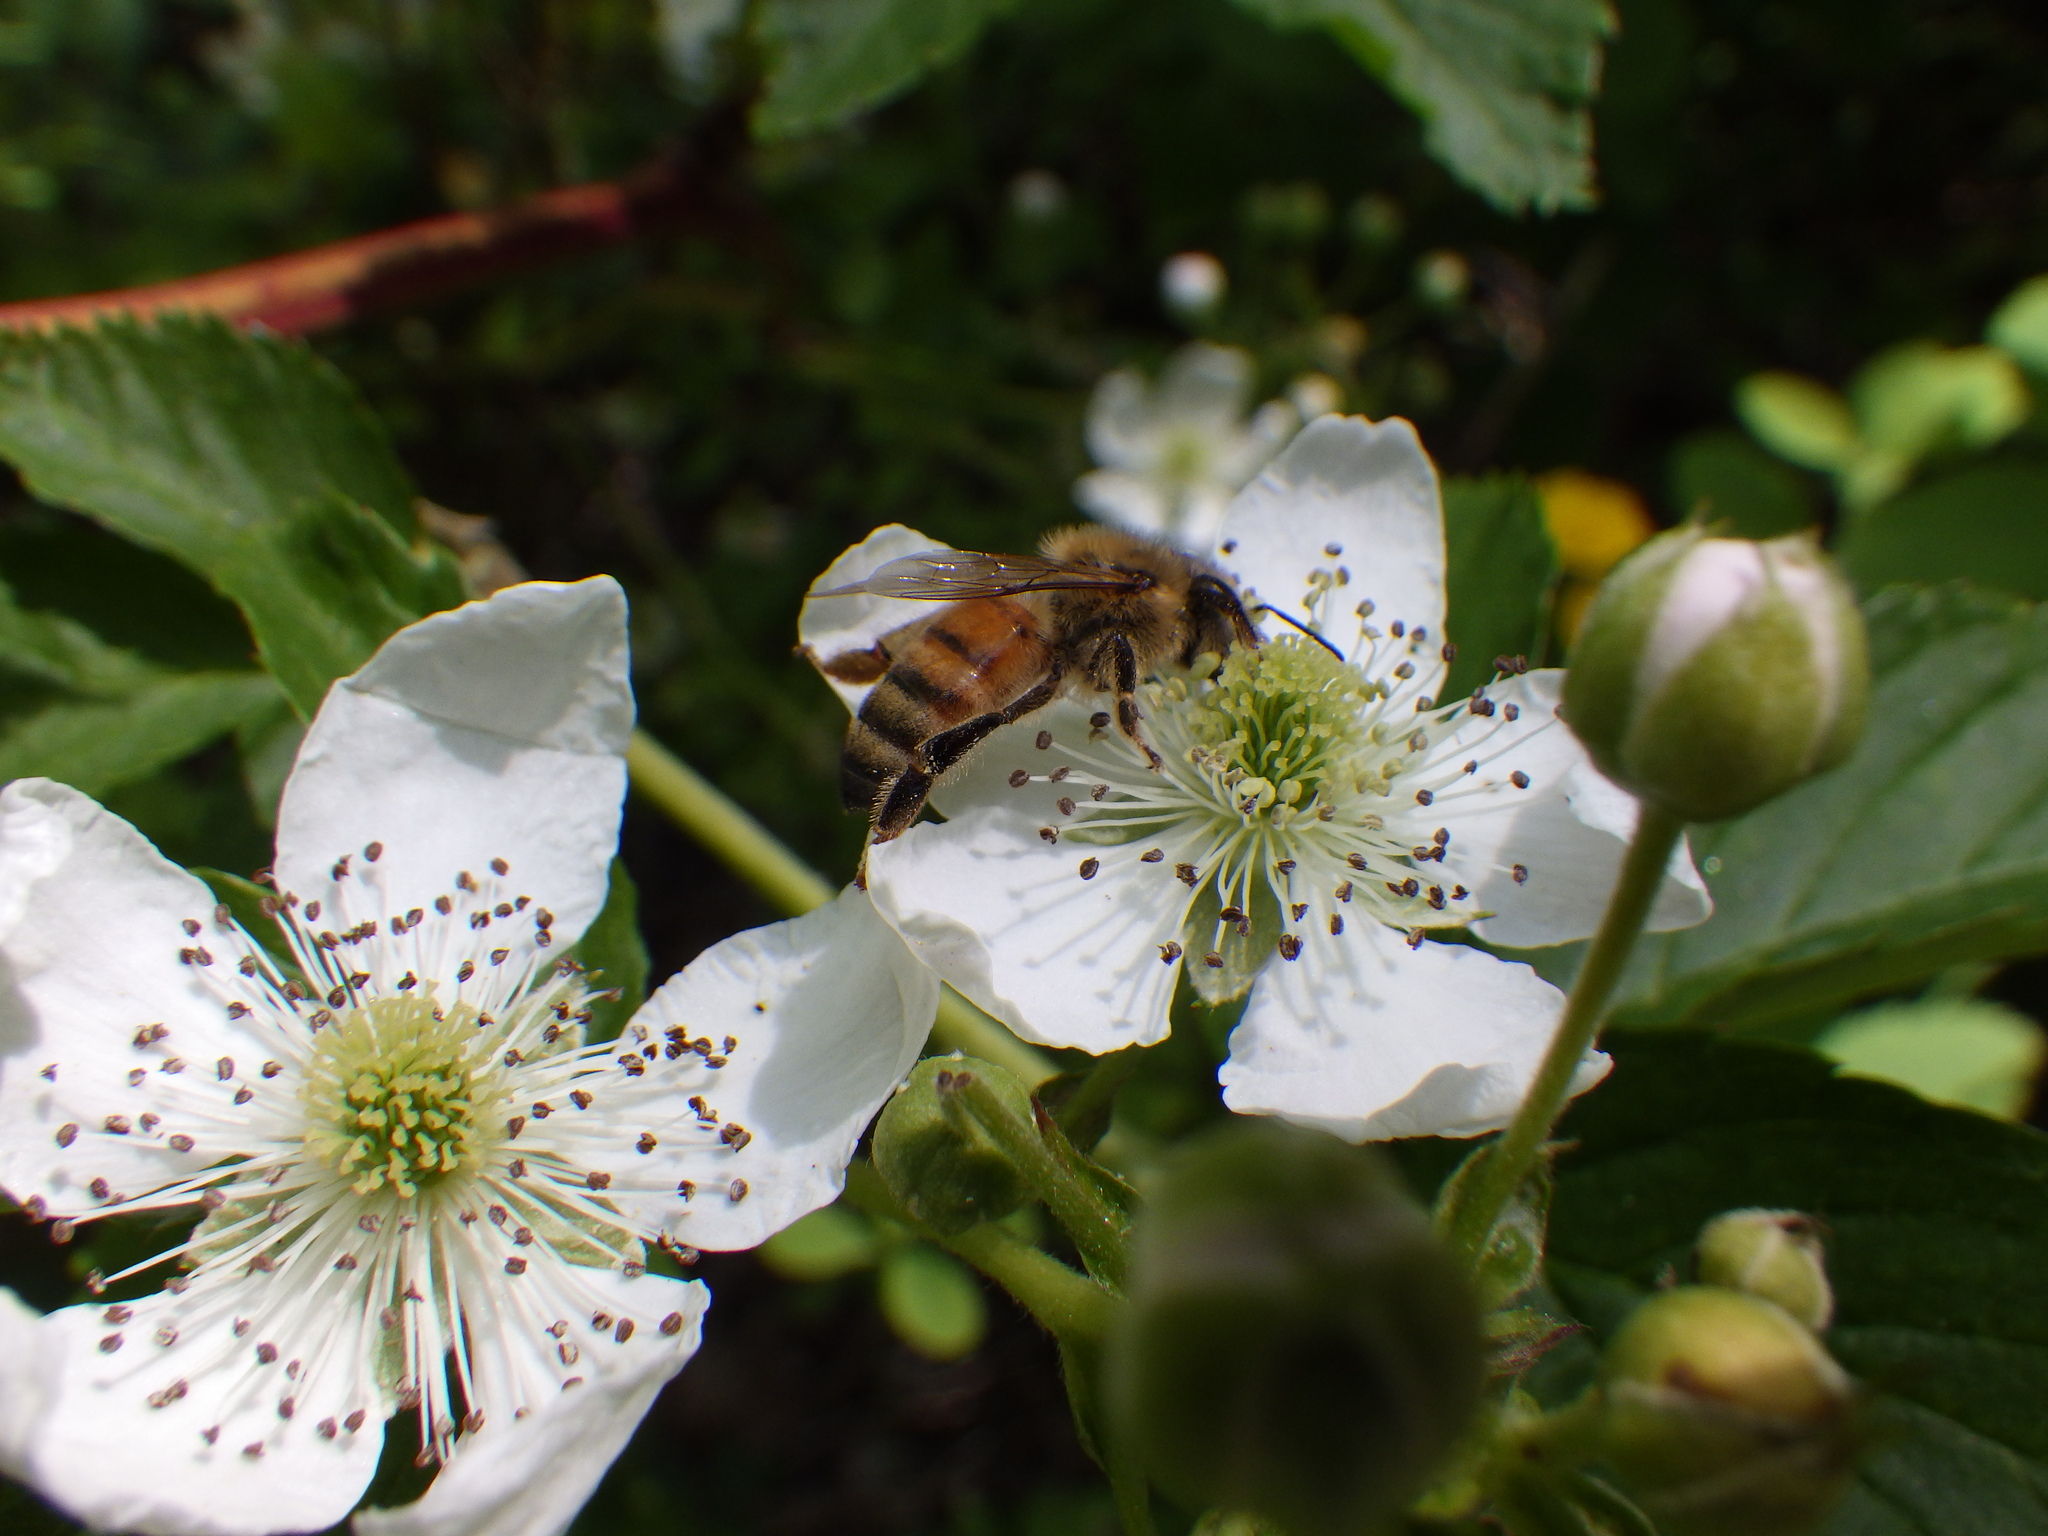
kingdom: Animalia
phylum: Arthropoda
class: Insecta
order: Hymenoptera
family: Apidae
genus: Apis
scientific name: Apis mellifera
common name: Honey bee
